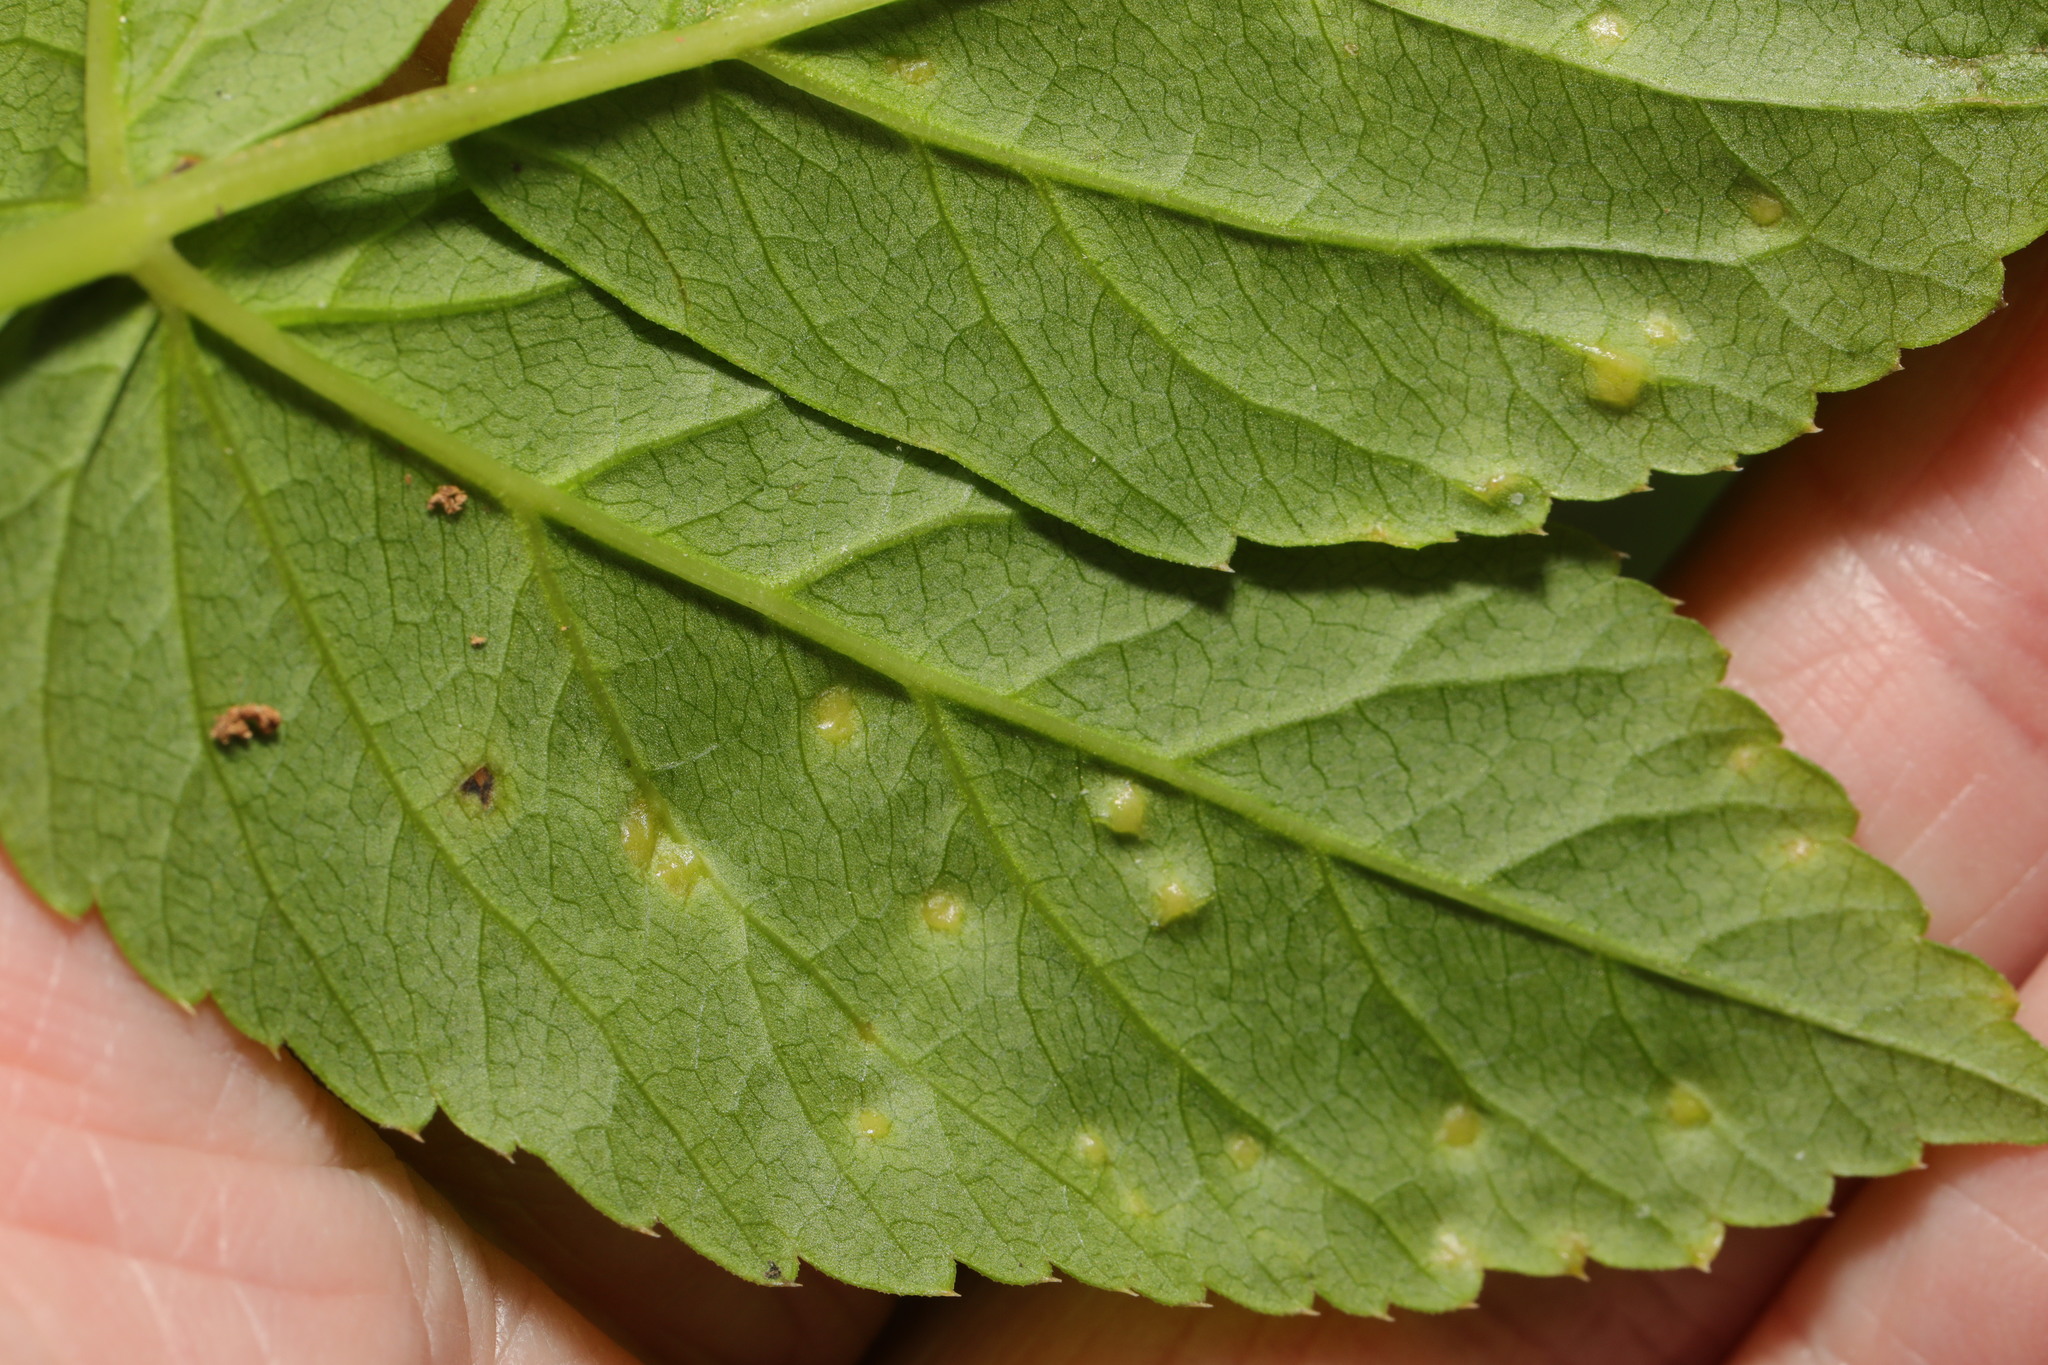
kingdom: Fungi
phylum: Ascomycota
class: Taphrinomycetes
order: Taphrinales
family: Taphrinaceae
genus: Protomyces
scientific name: Protomyces macrosporus
